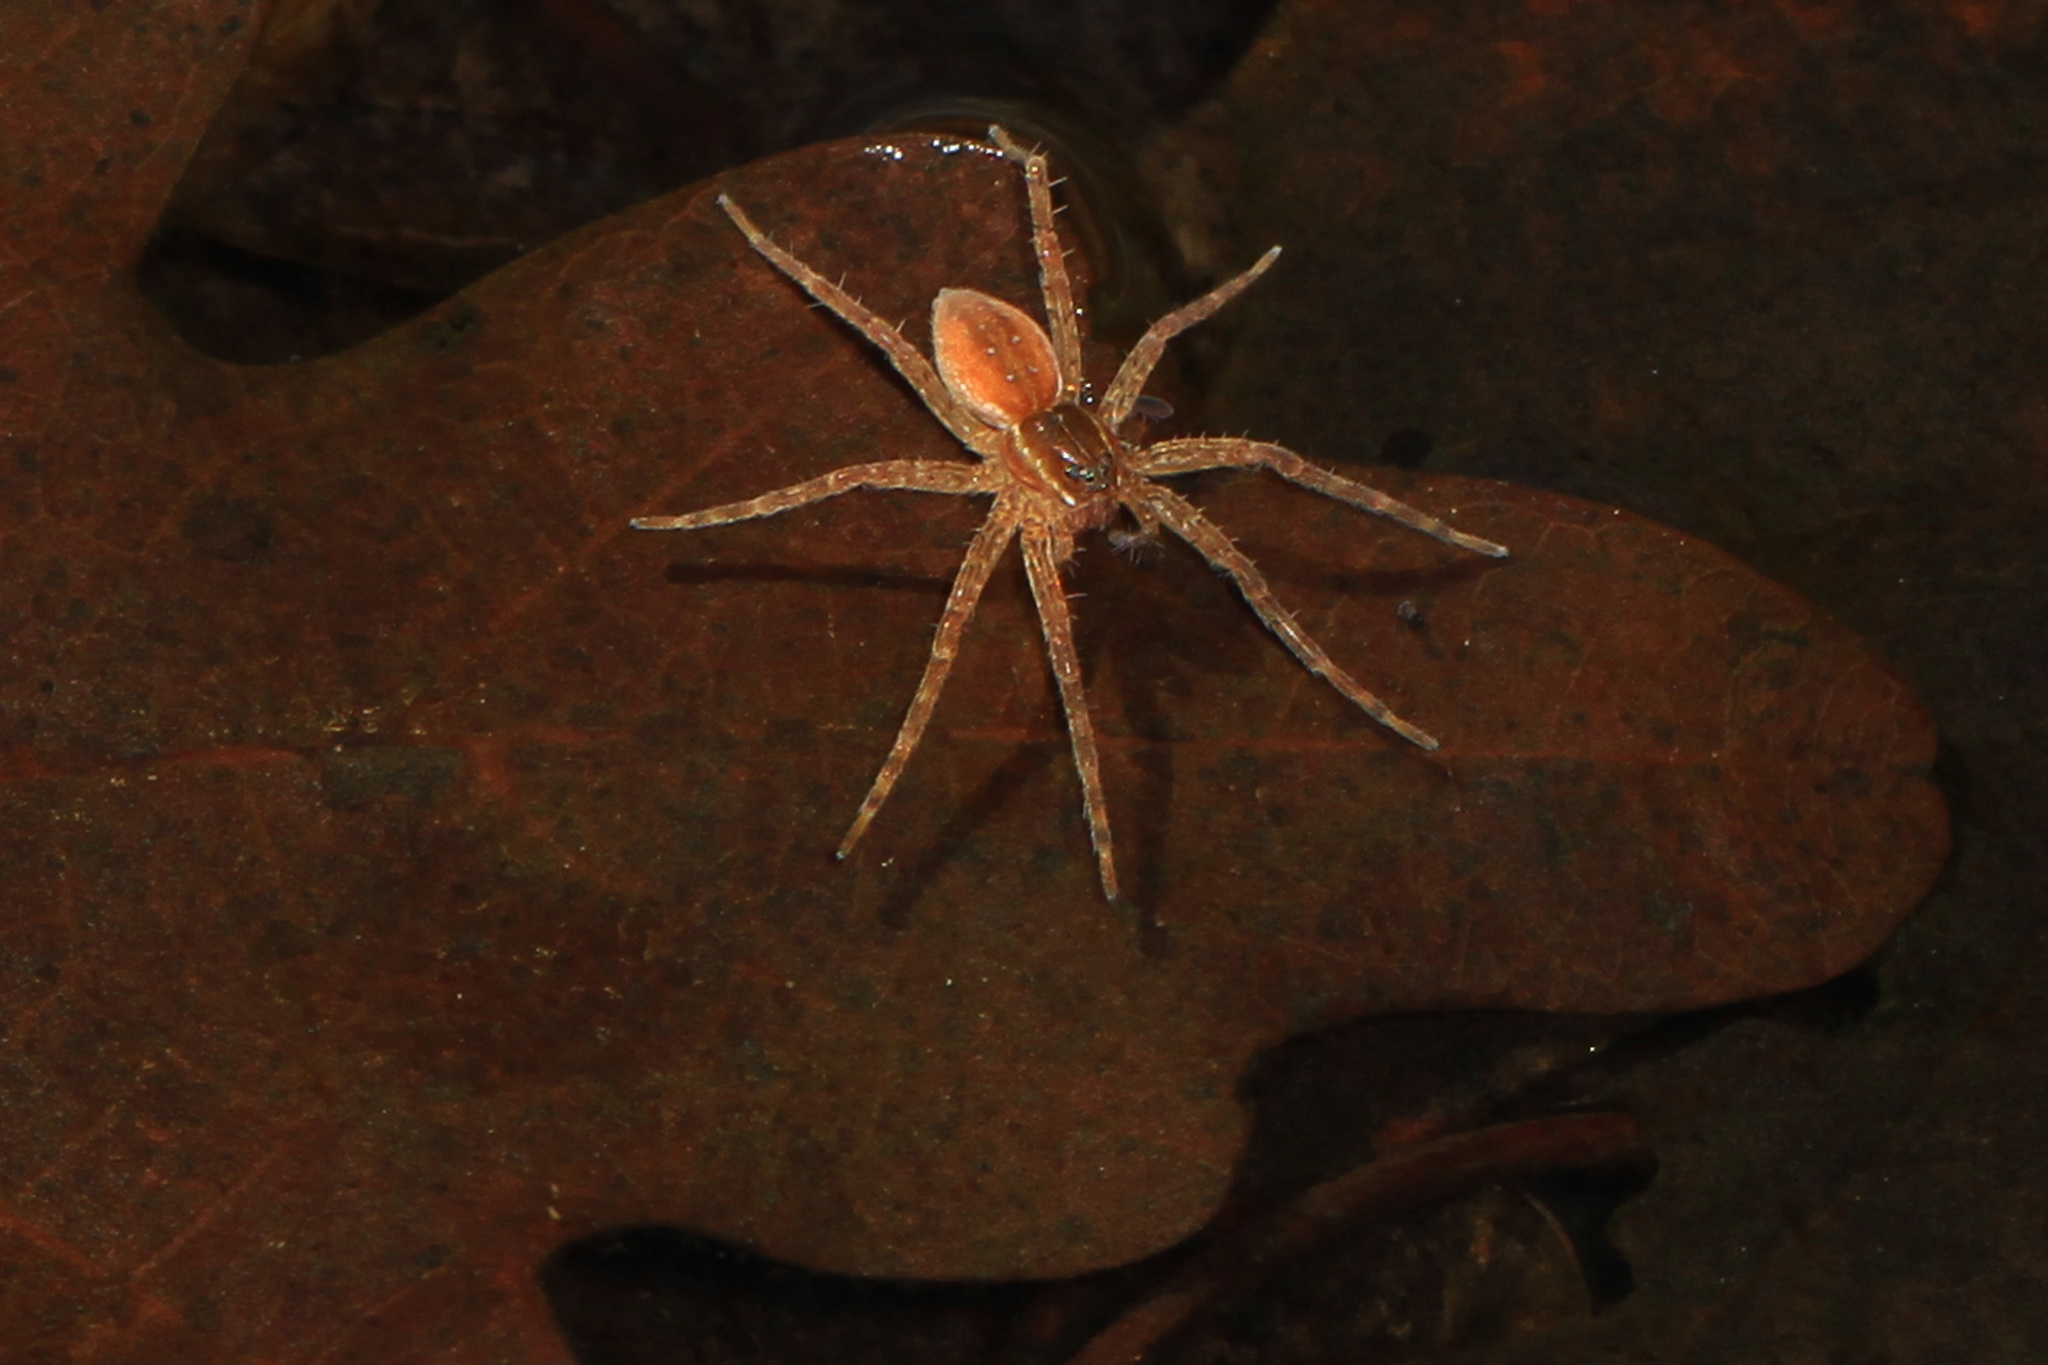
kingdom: Animalia
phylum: Arthropoda
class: Arachnida
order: Araneae
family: Pisauridae
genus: Dolomedes
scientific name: Dolomedes triton
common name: Six-spotted fishing spider
